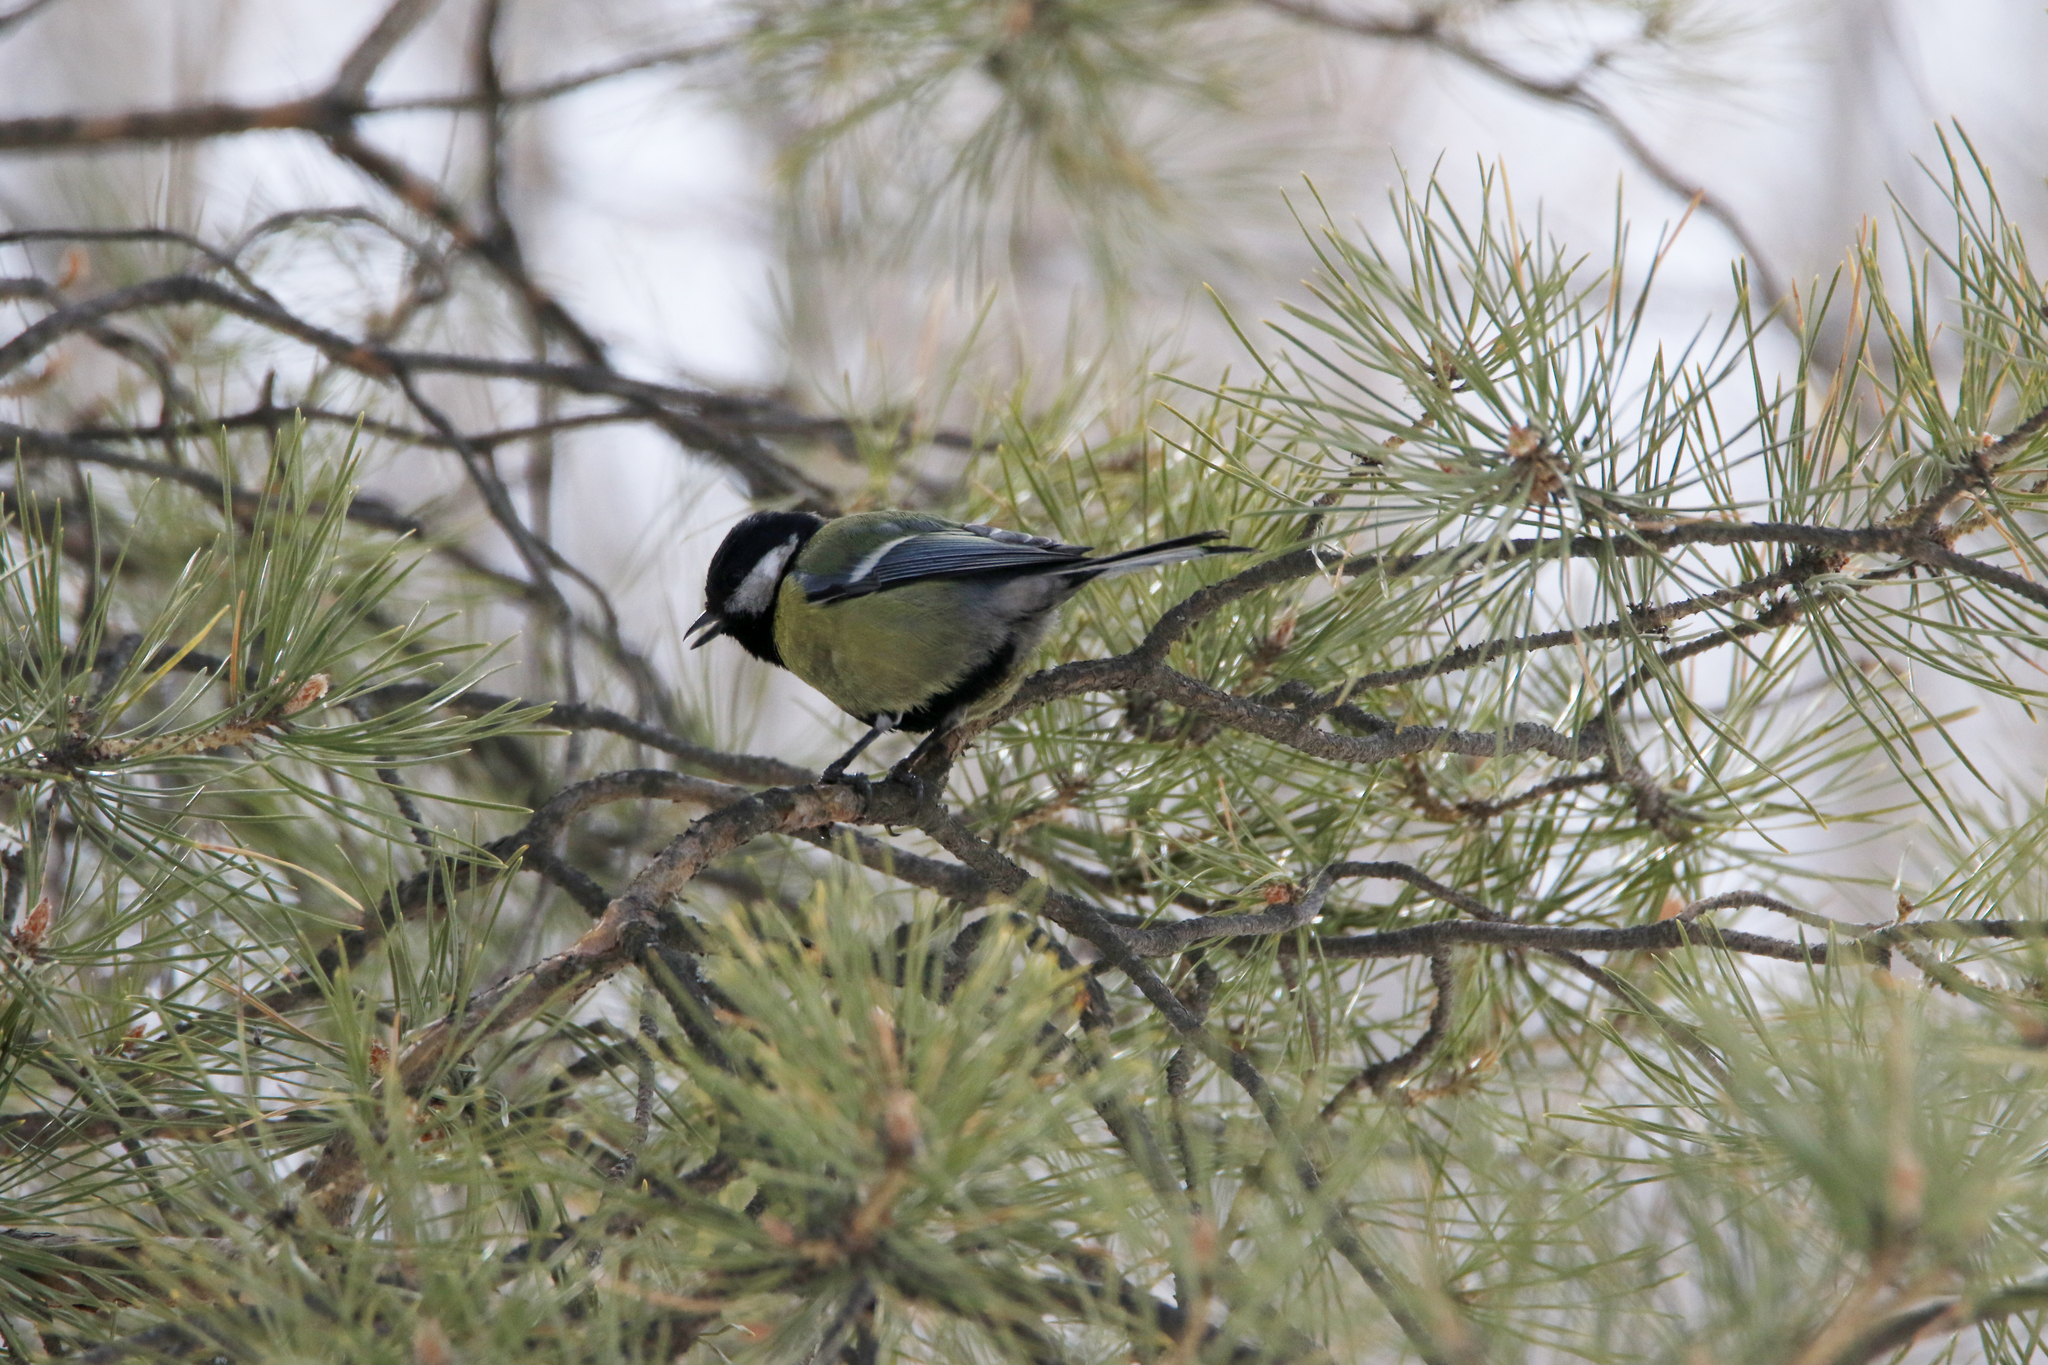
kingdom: Animalia
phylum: Chordata
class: Aves
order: Passeriformes
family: Paridae
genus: Parus
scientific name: Parus major
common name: Great tit
